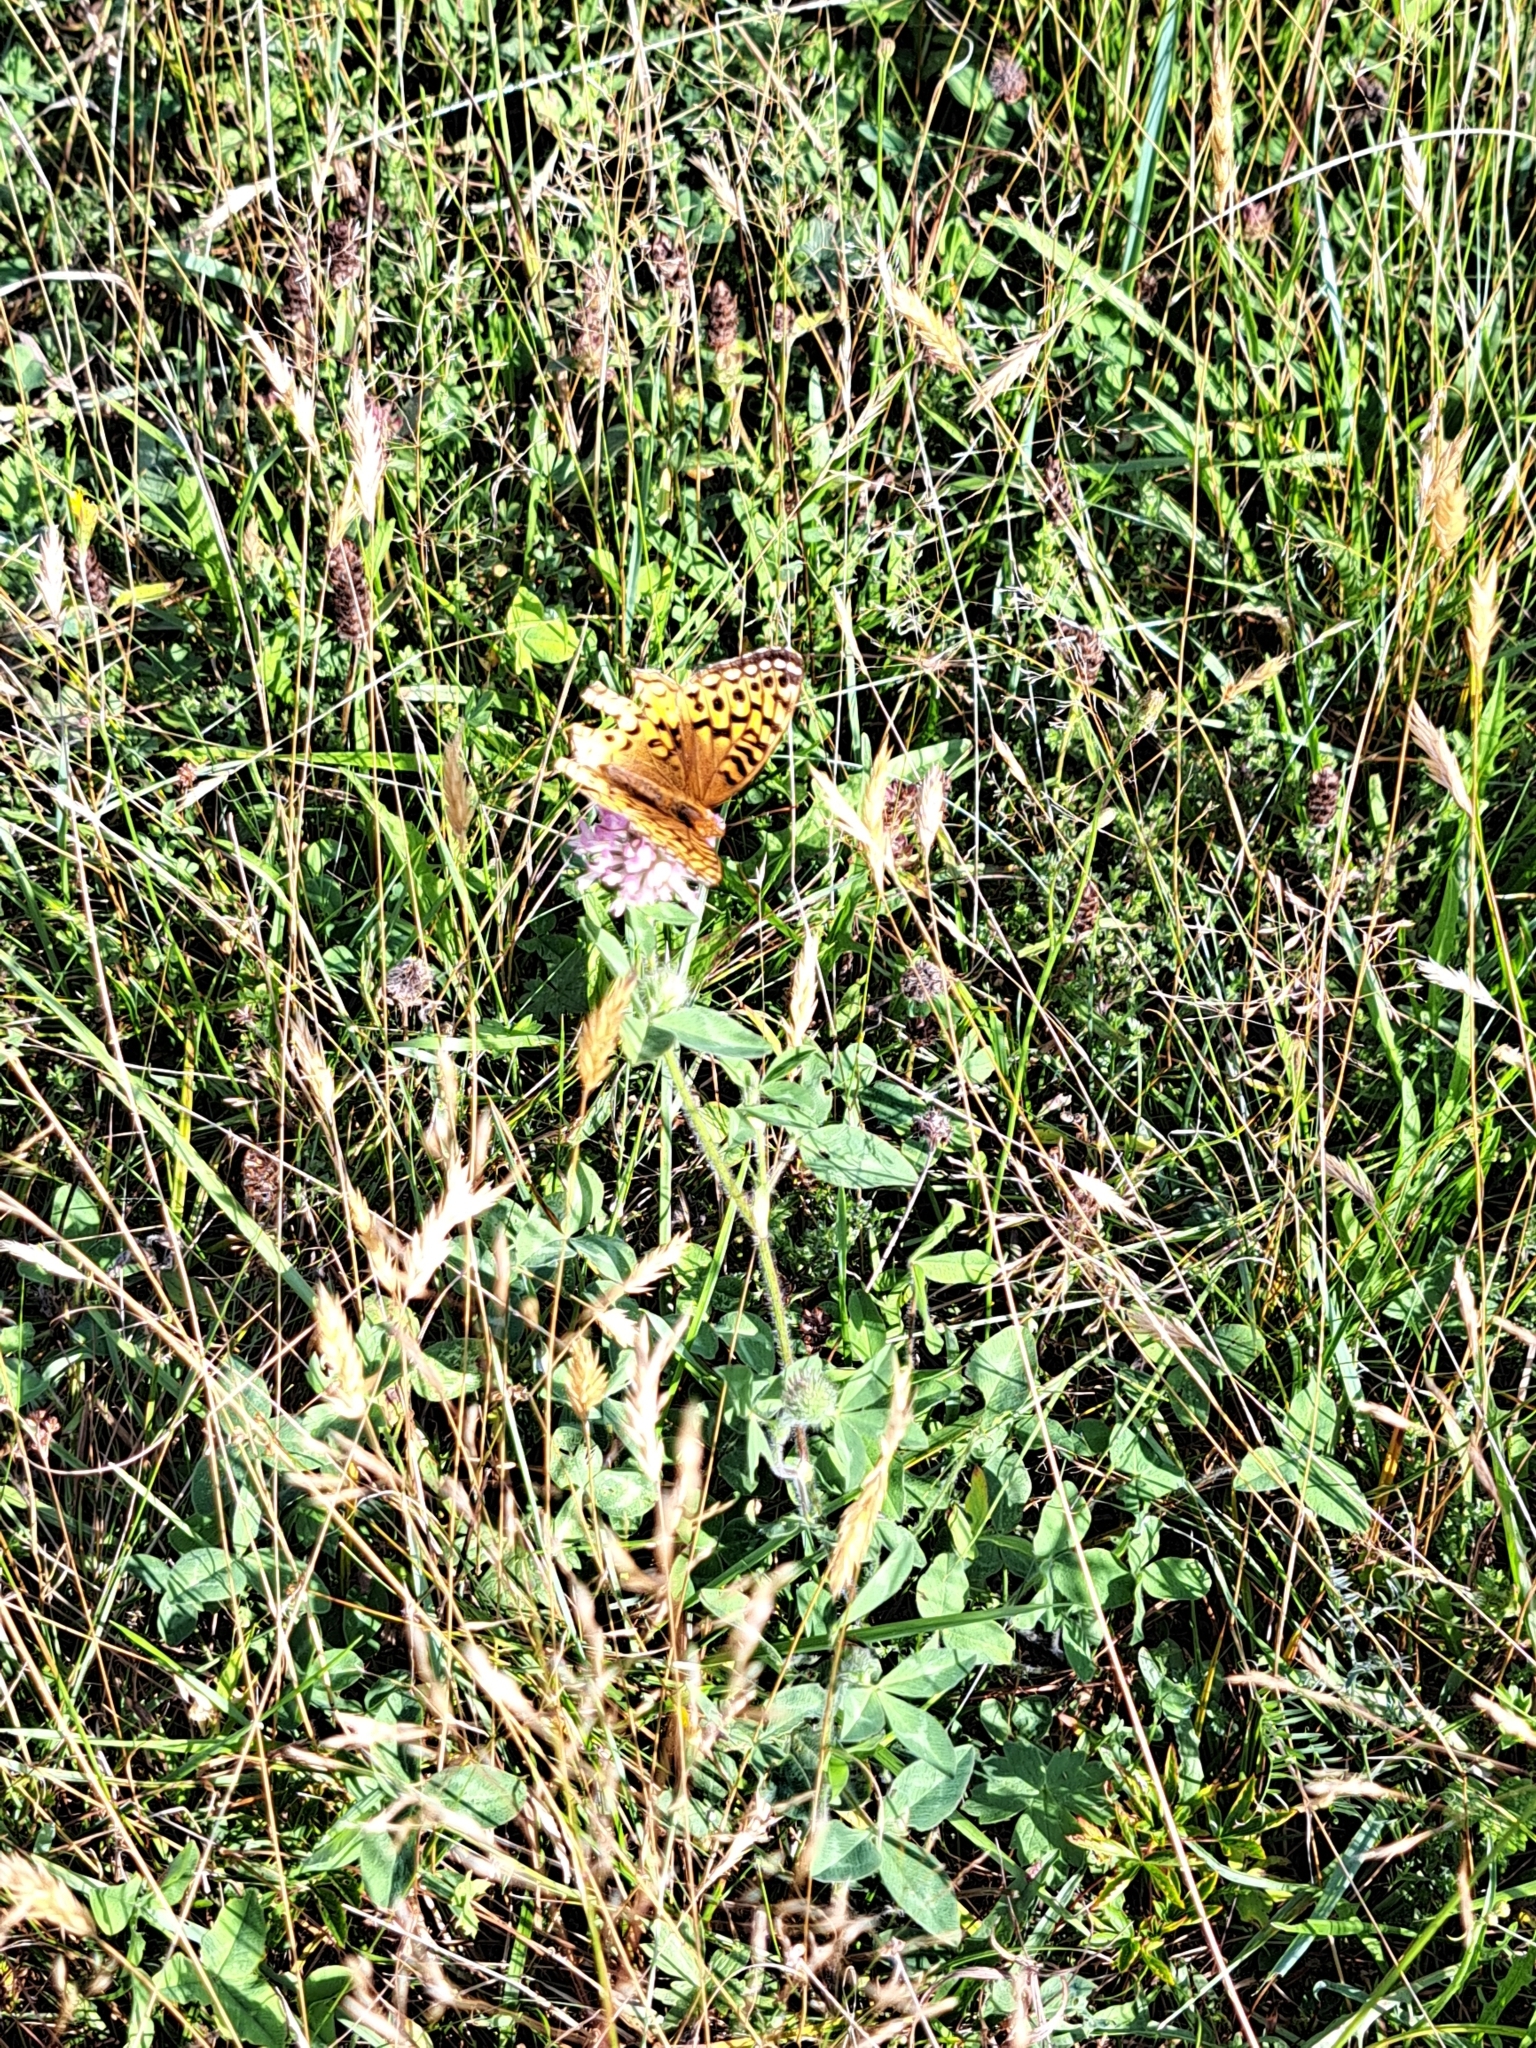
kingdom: Animalia
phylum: Arthropoda
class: Insecta
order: Lepidoptera
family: Nymphalidae
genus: Speyeria
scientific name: Speyeria cybele
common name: Great spangled fritillary
